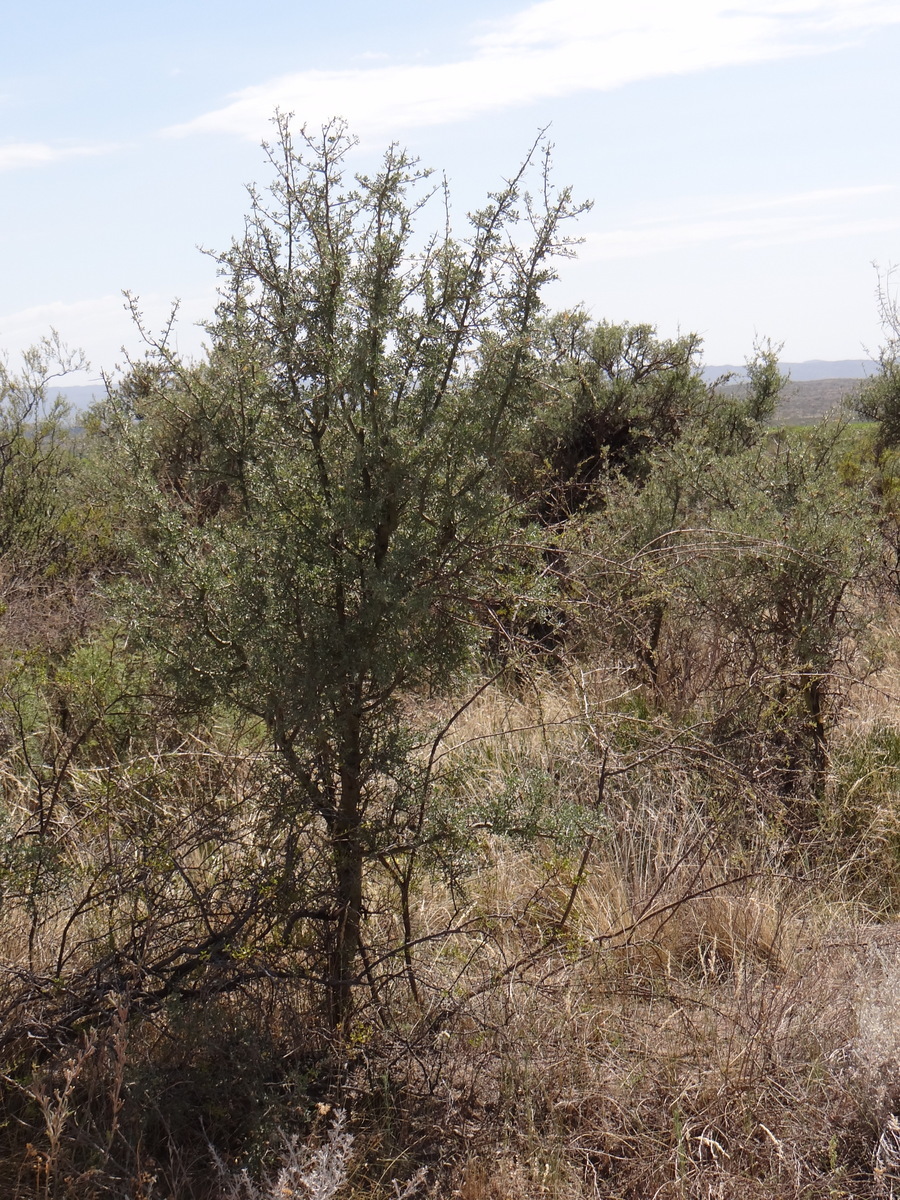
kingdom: Plantae
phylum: Tracheophyta
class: Magnoliopsida
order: Fabales
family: Fabaceae
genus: Geoffroea
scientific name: Geoffroea decorticans
